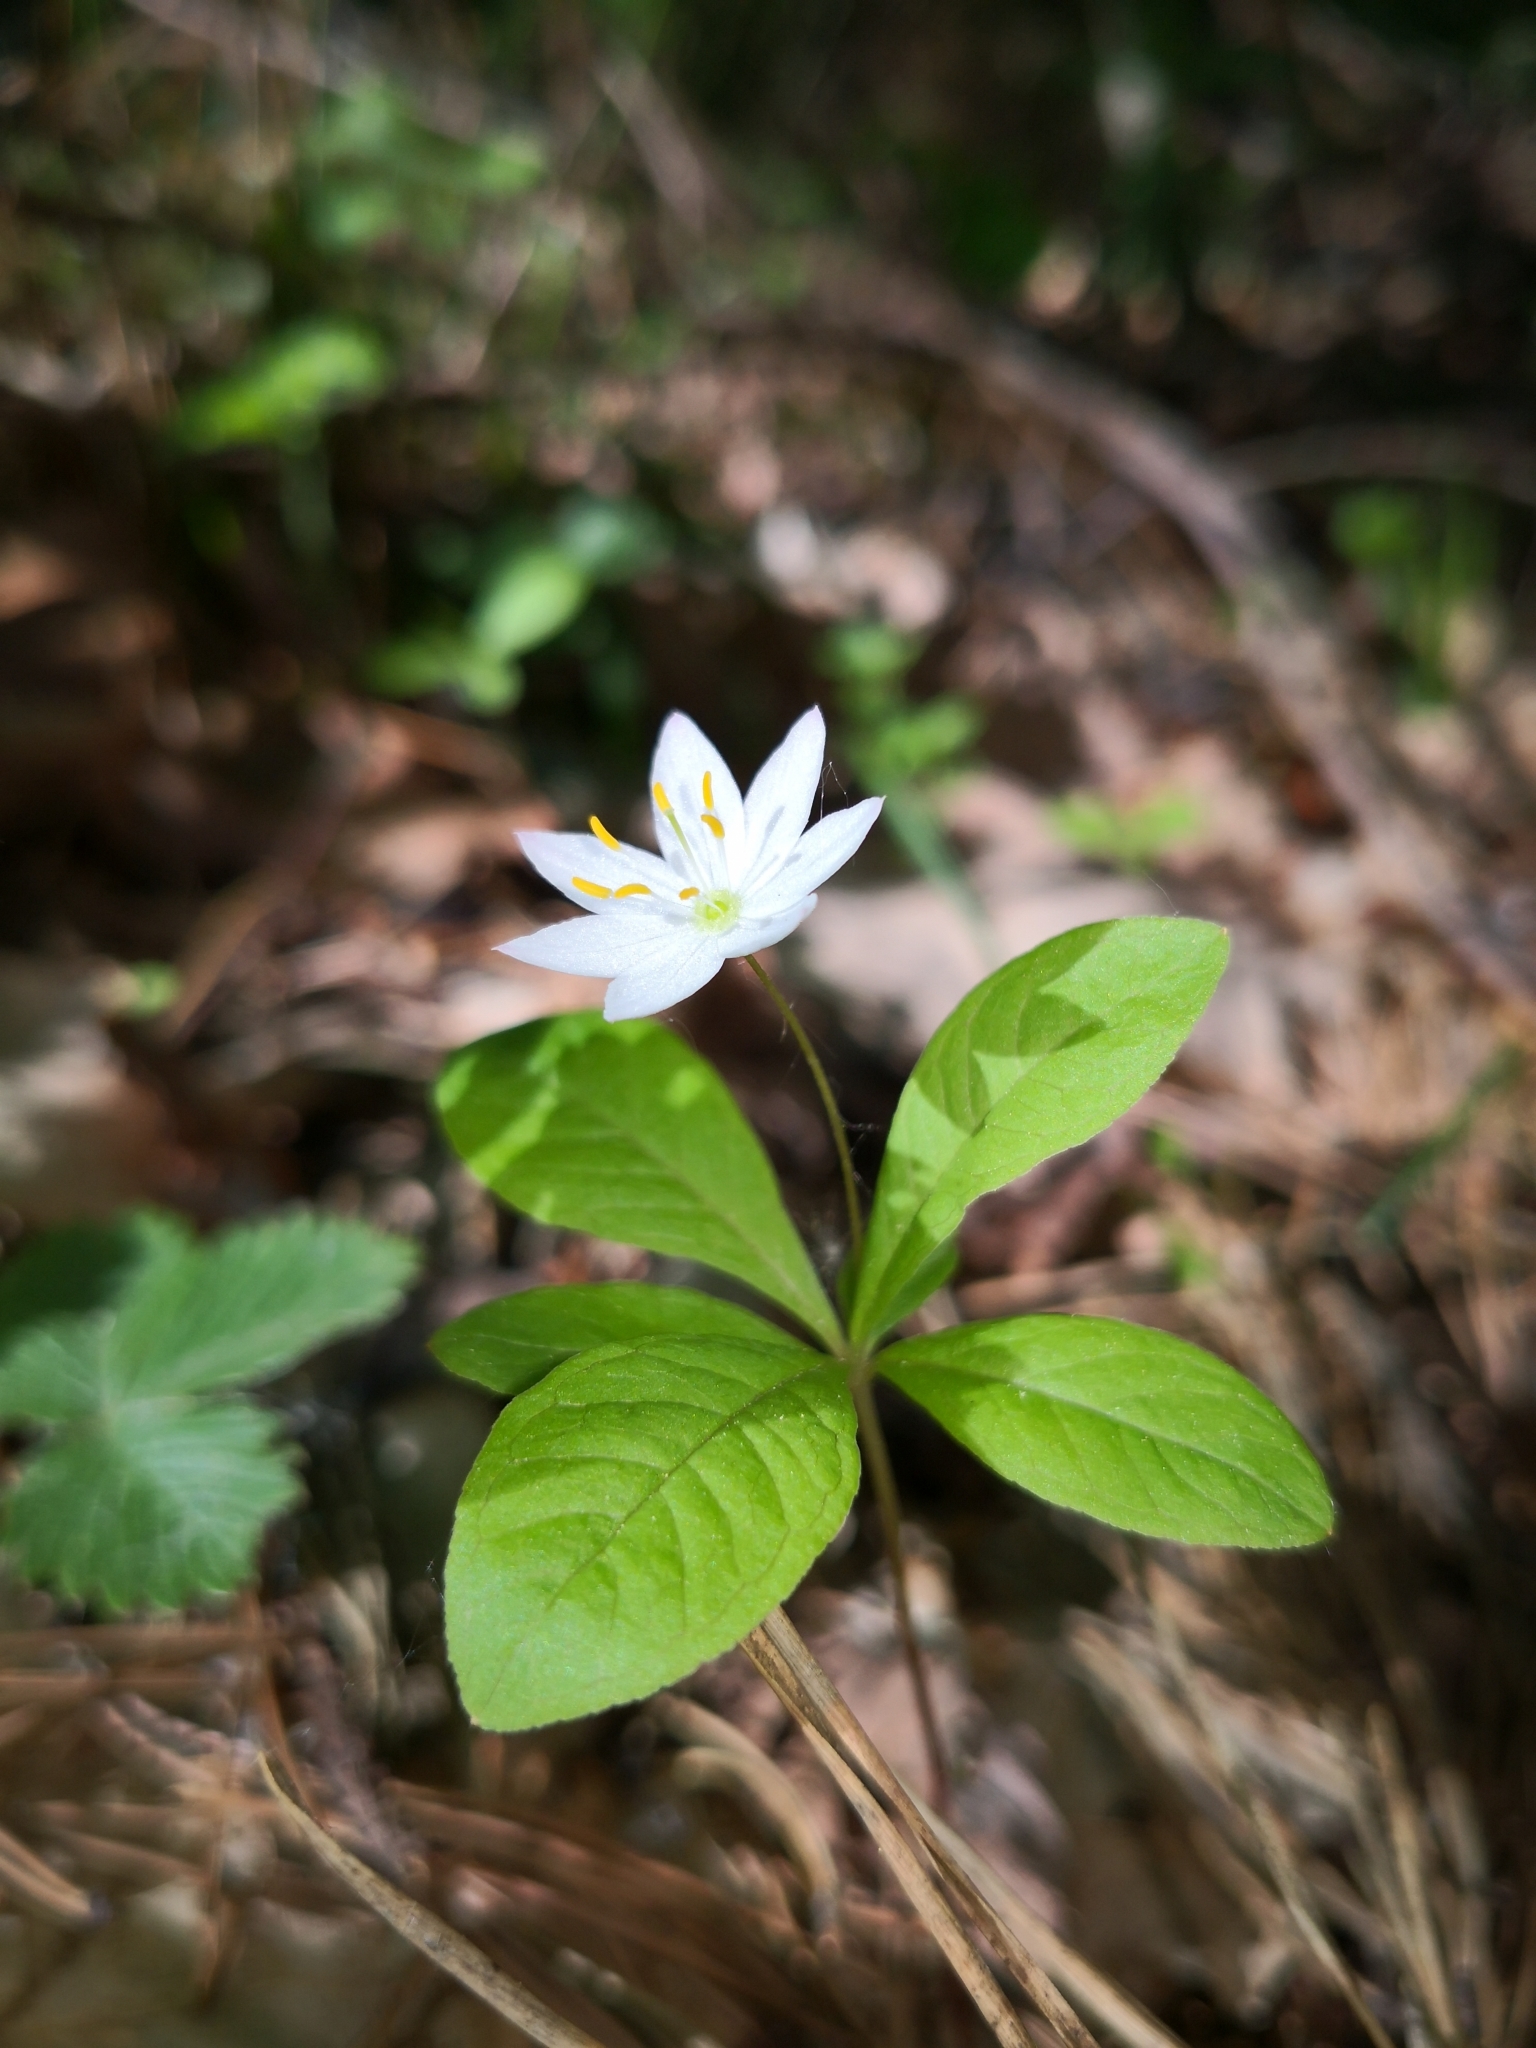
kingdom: Plantae
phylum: Tracheophyta
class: Magnoliopsida
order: Ericales
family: Primulaceae
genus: Lysimachia
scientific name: Lysimachia europaea
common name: Arctic starflower
